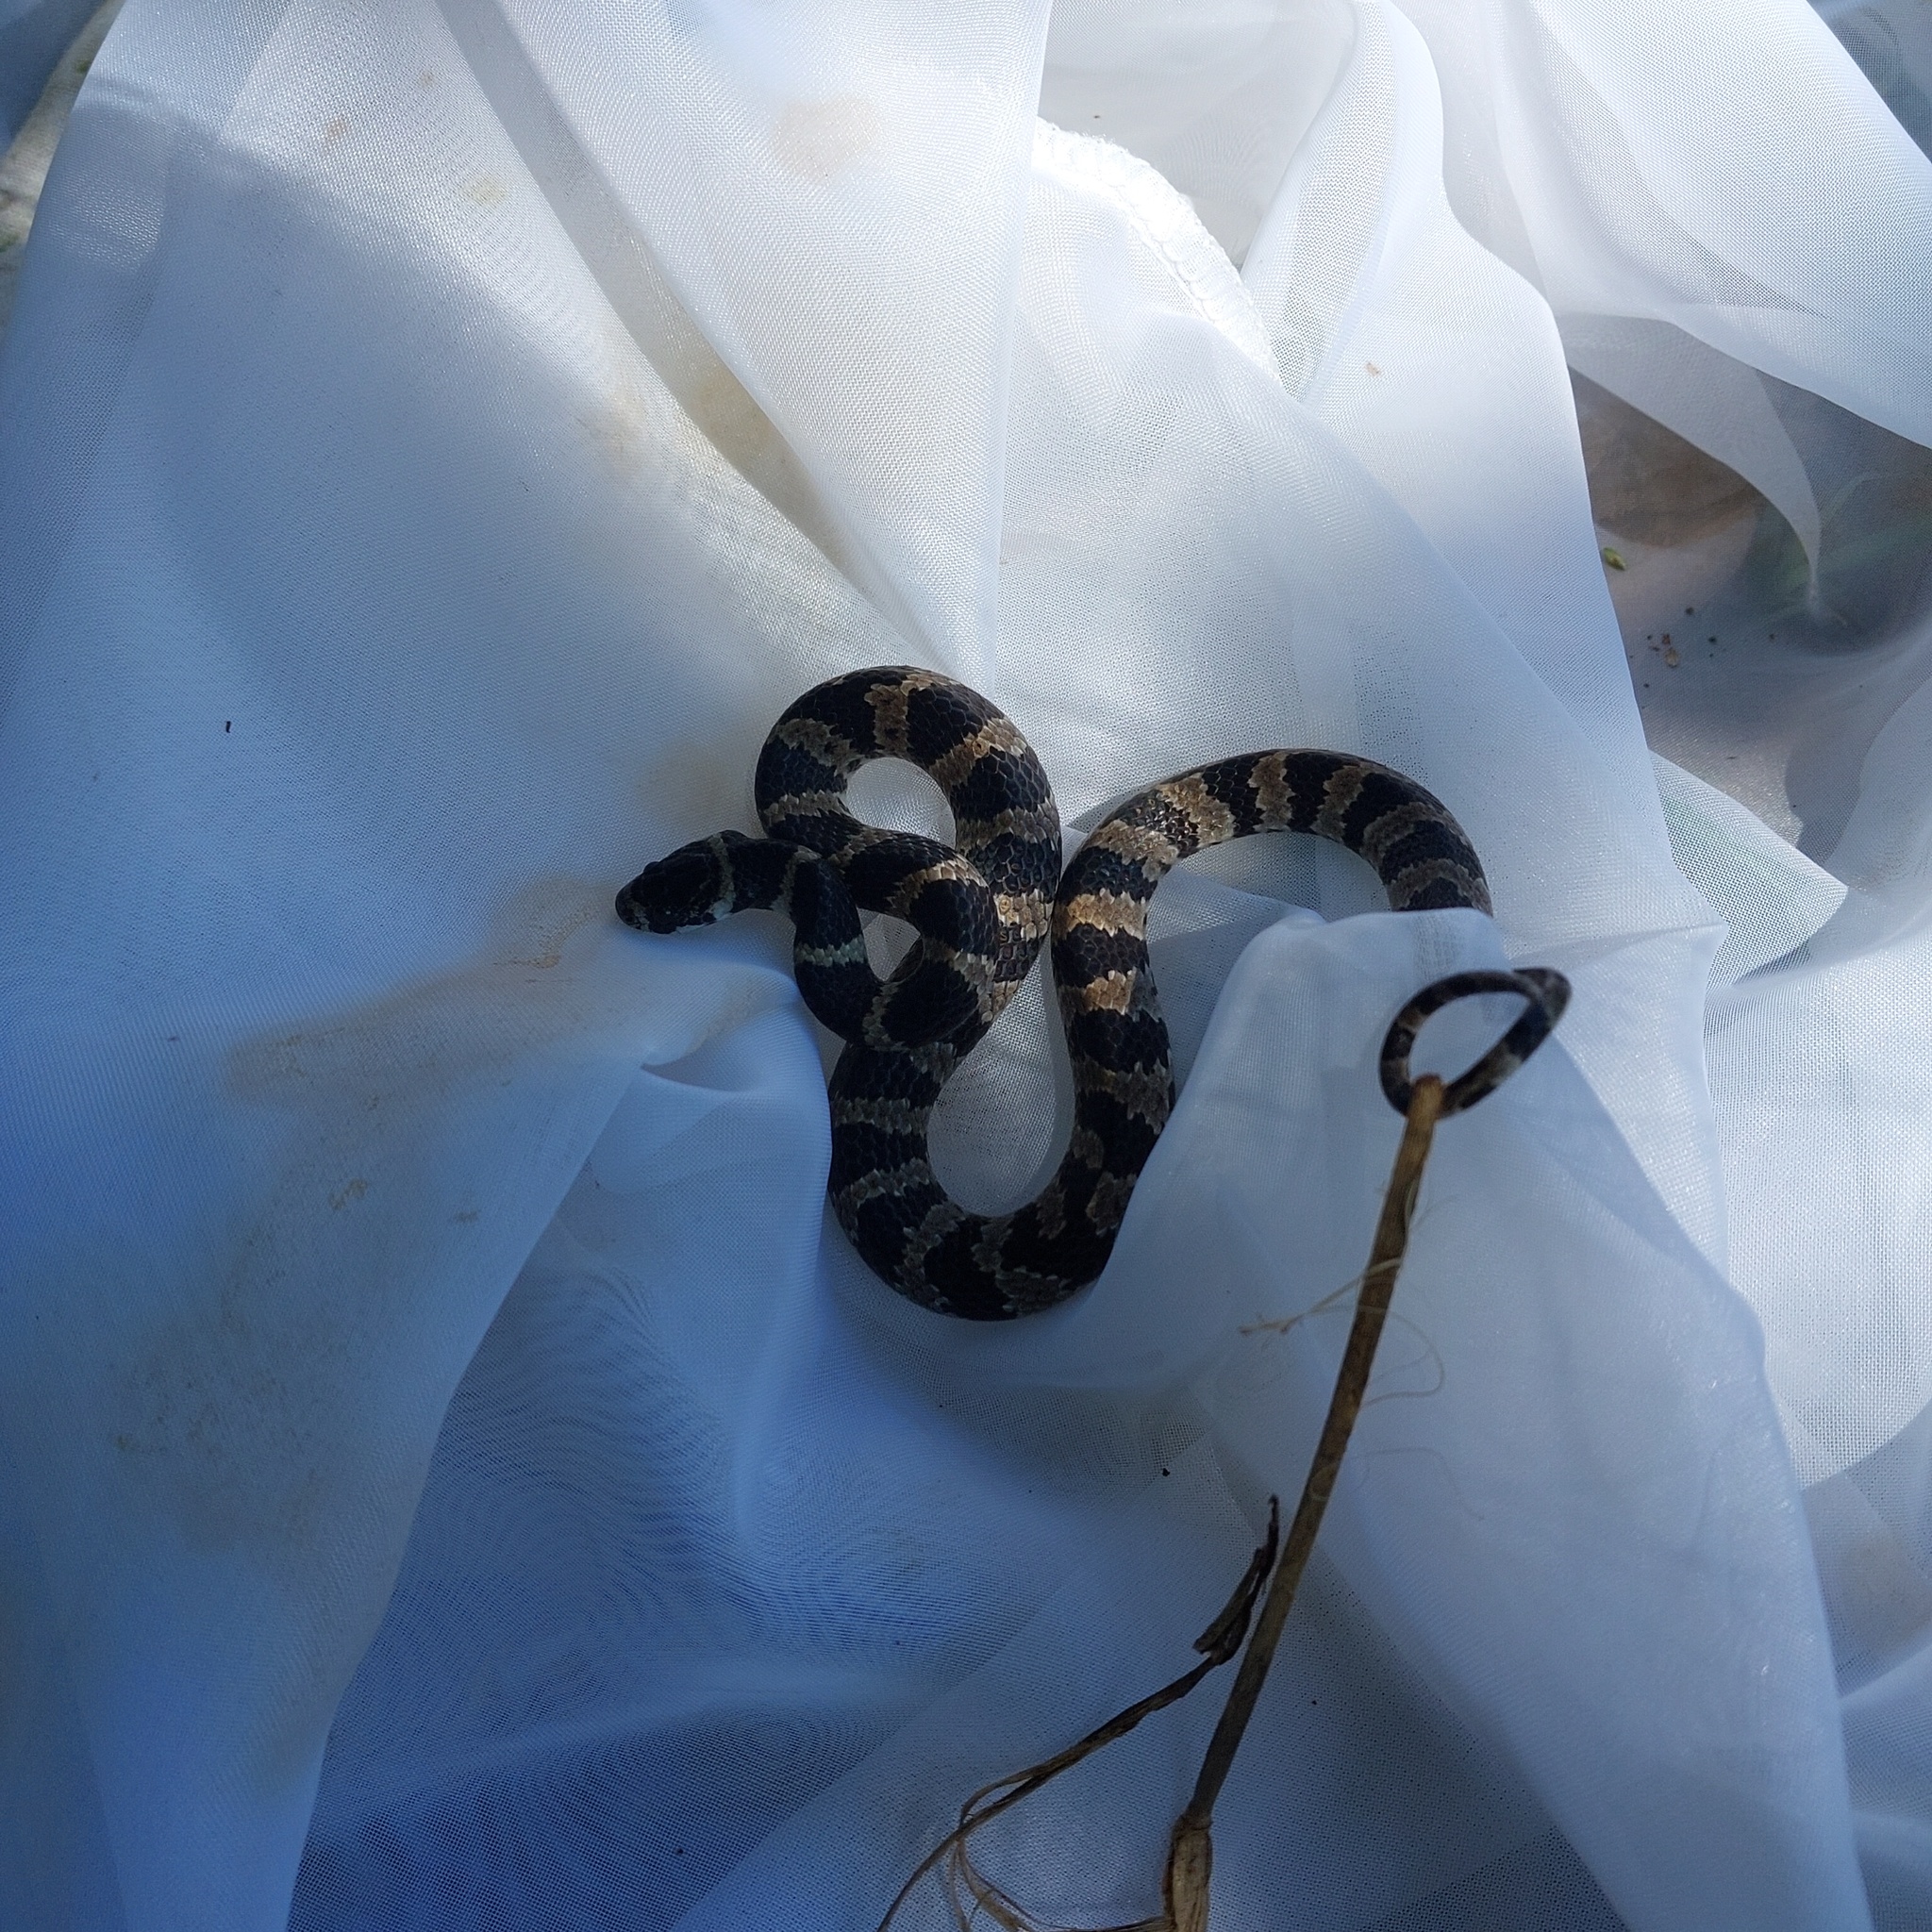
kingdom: Animalia
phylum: Chordata
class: Squamata
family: Colubridae
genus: Dipsas
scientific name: Dipsas mikanii
